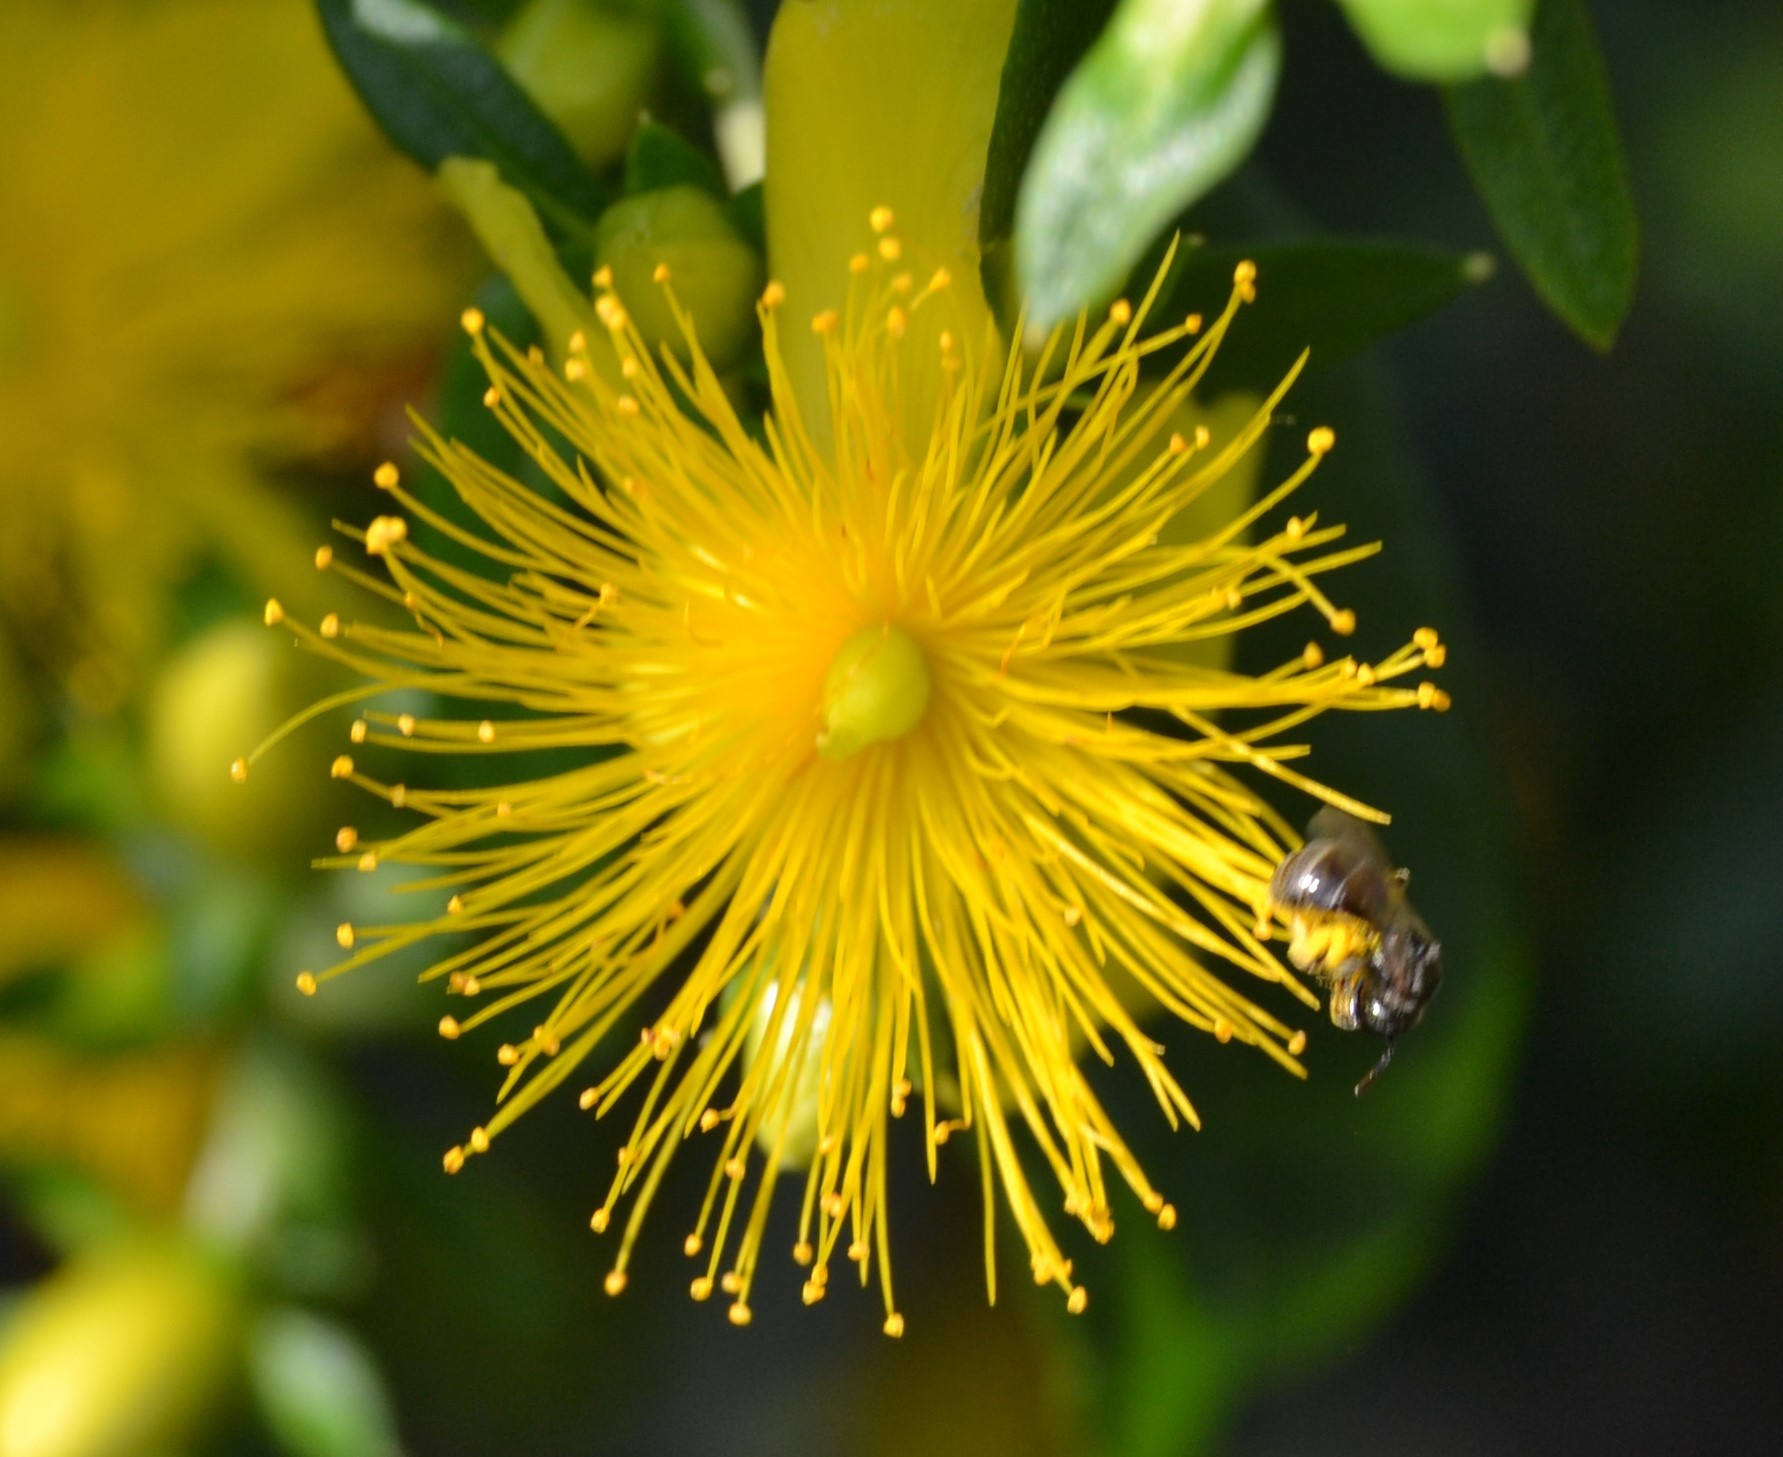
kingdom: Animalia
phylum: Arthropoda
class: Insecta
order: Hymenoptera
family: Halictidae
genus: Dialictus
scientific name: Dialictus
